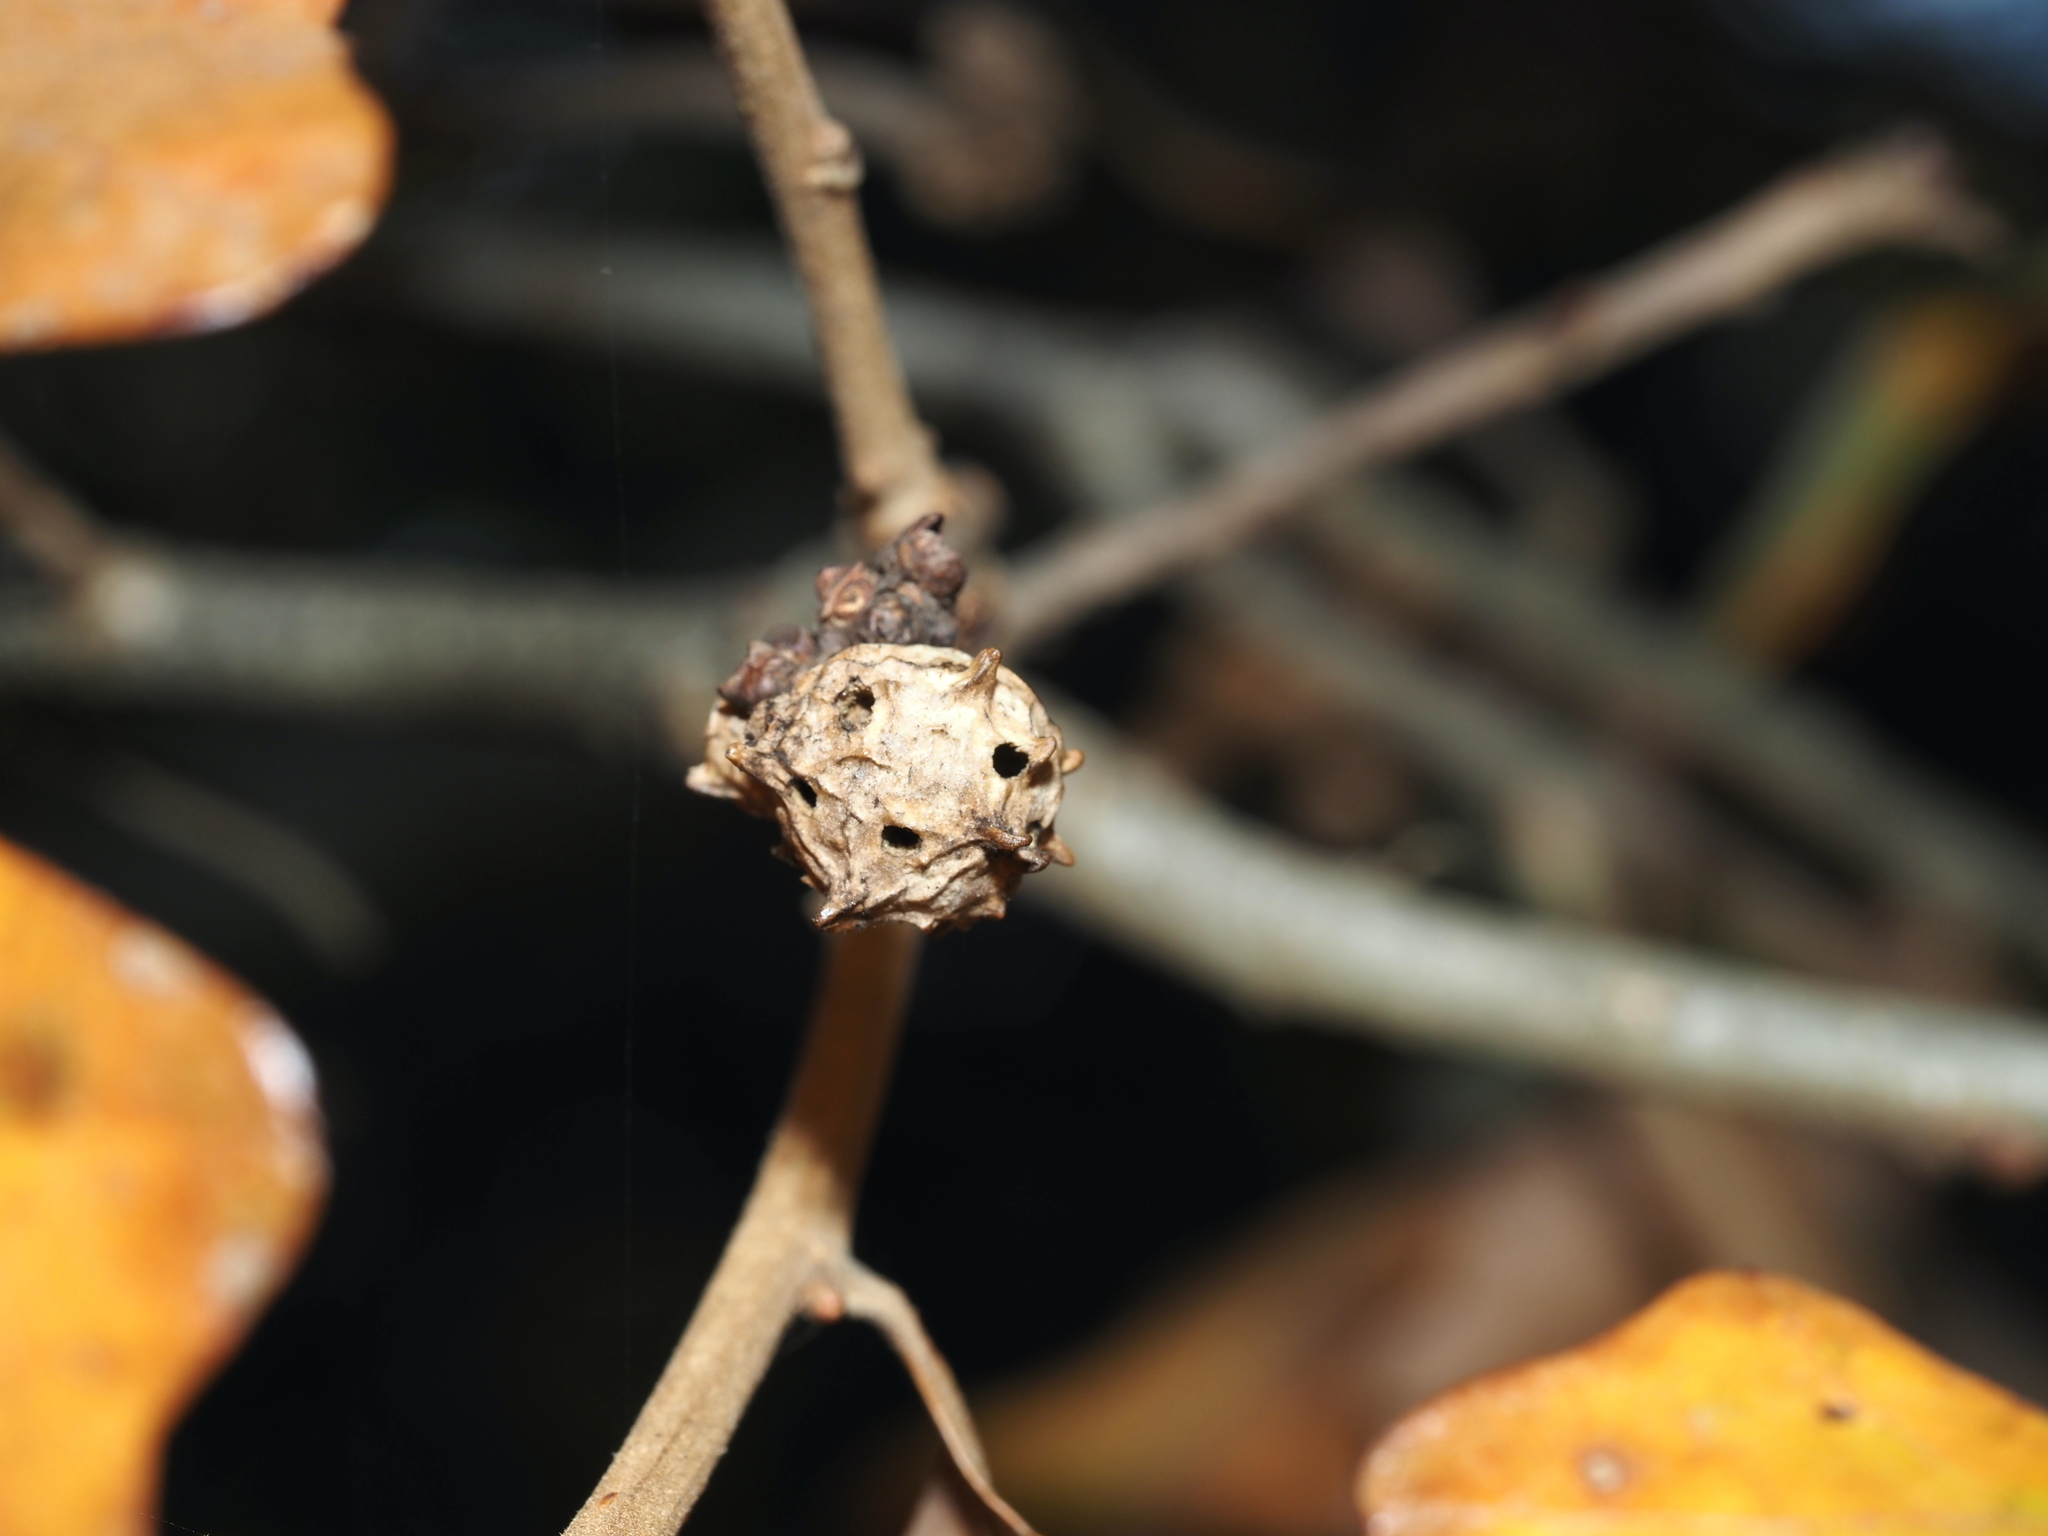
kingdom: Animalia
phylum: Arthropoda
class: Insecta
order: Hymenoptera
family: Cynipidae
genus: Andricus
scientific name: Andricus
